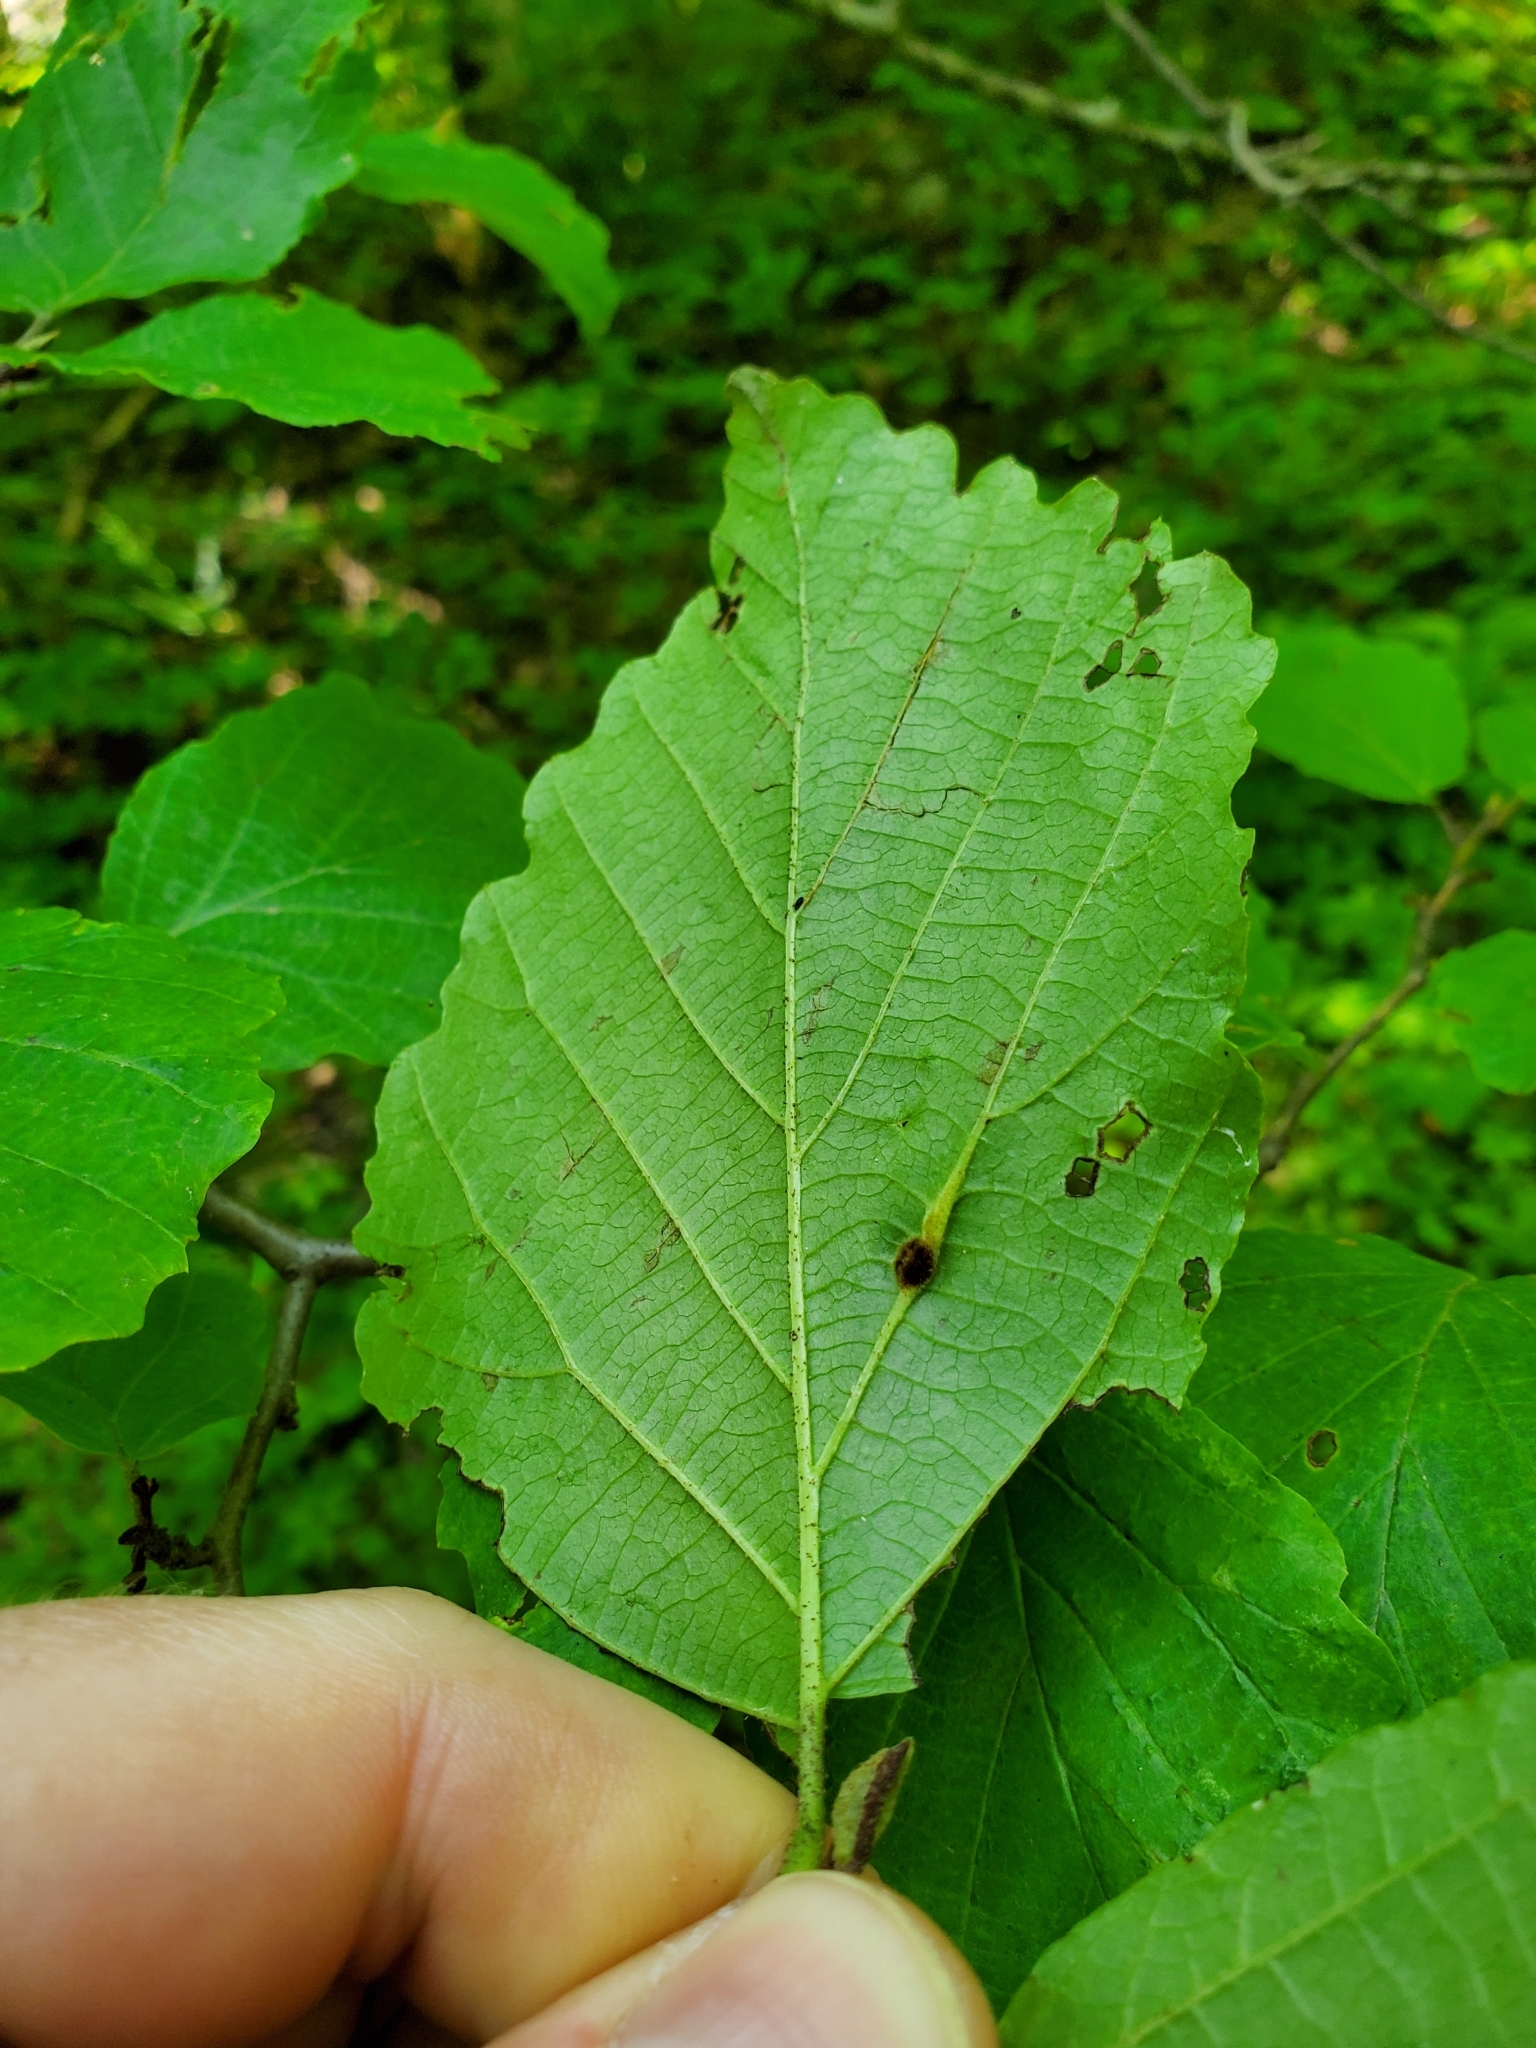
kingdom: Animalia
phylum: Arthropoda
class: Insecta
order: Hemiptera
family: Aphididae
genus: Hormaphis
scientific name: Hormaphis hamamelidis
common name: Witch-hazel cone gall aphid
